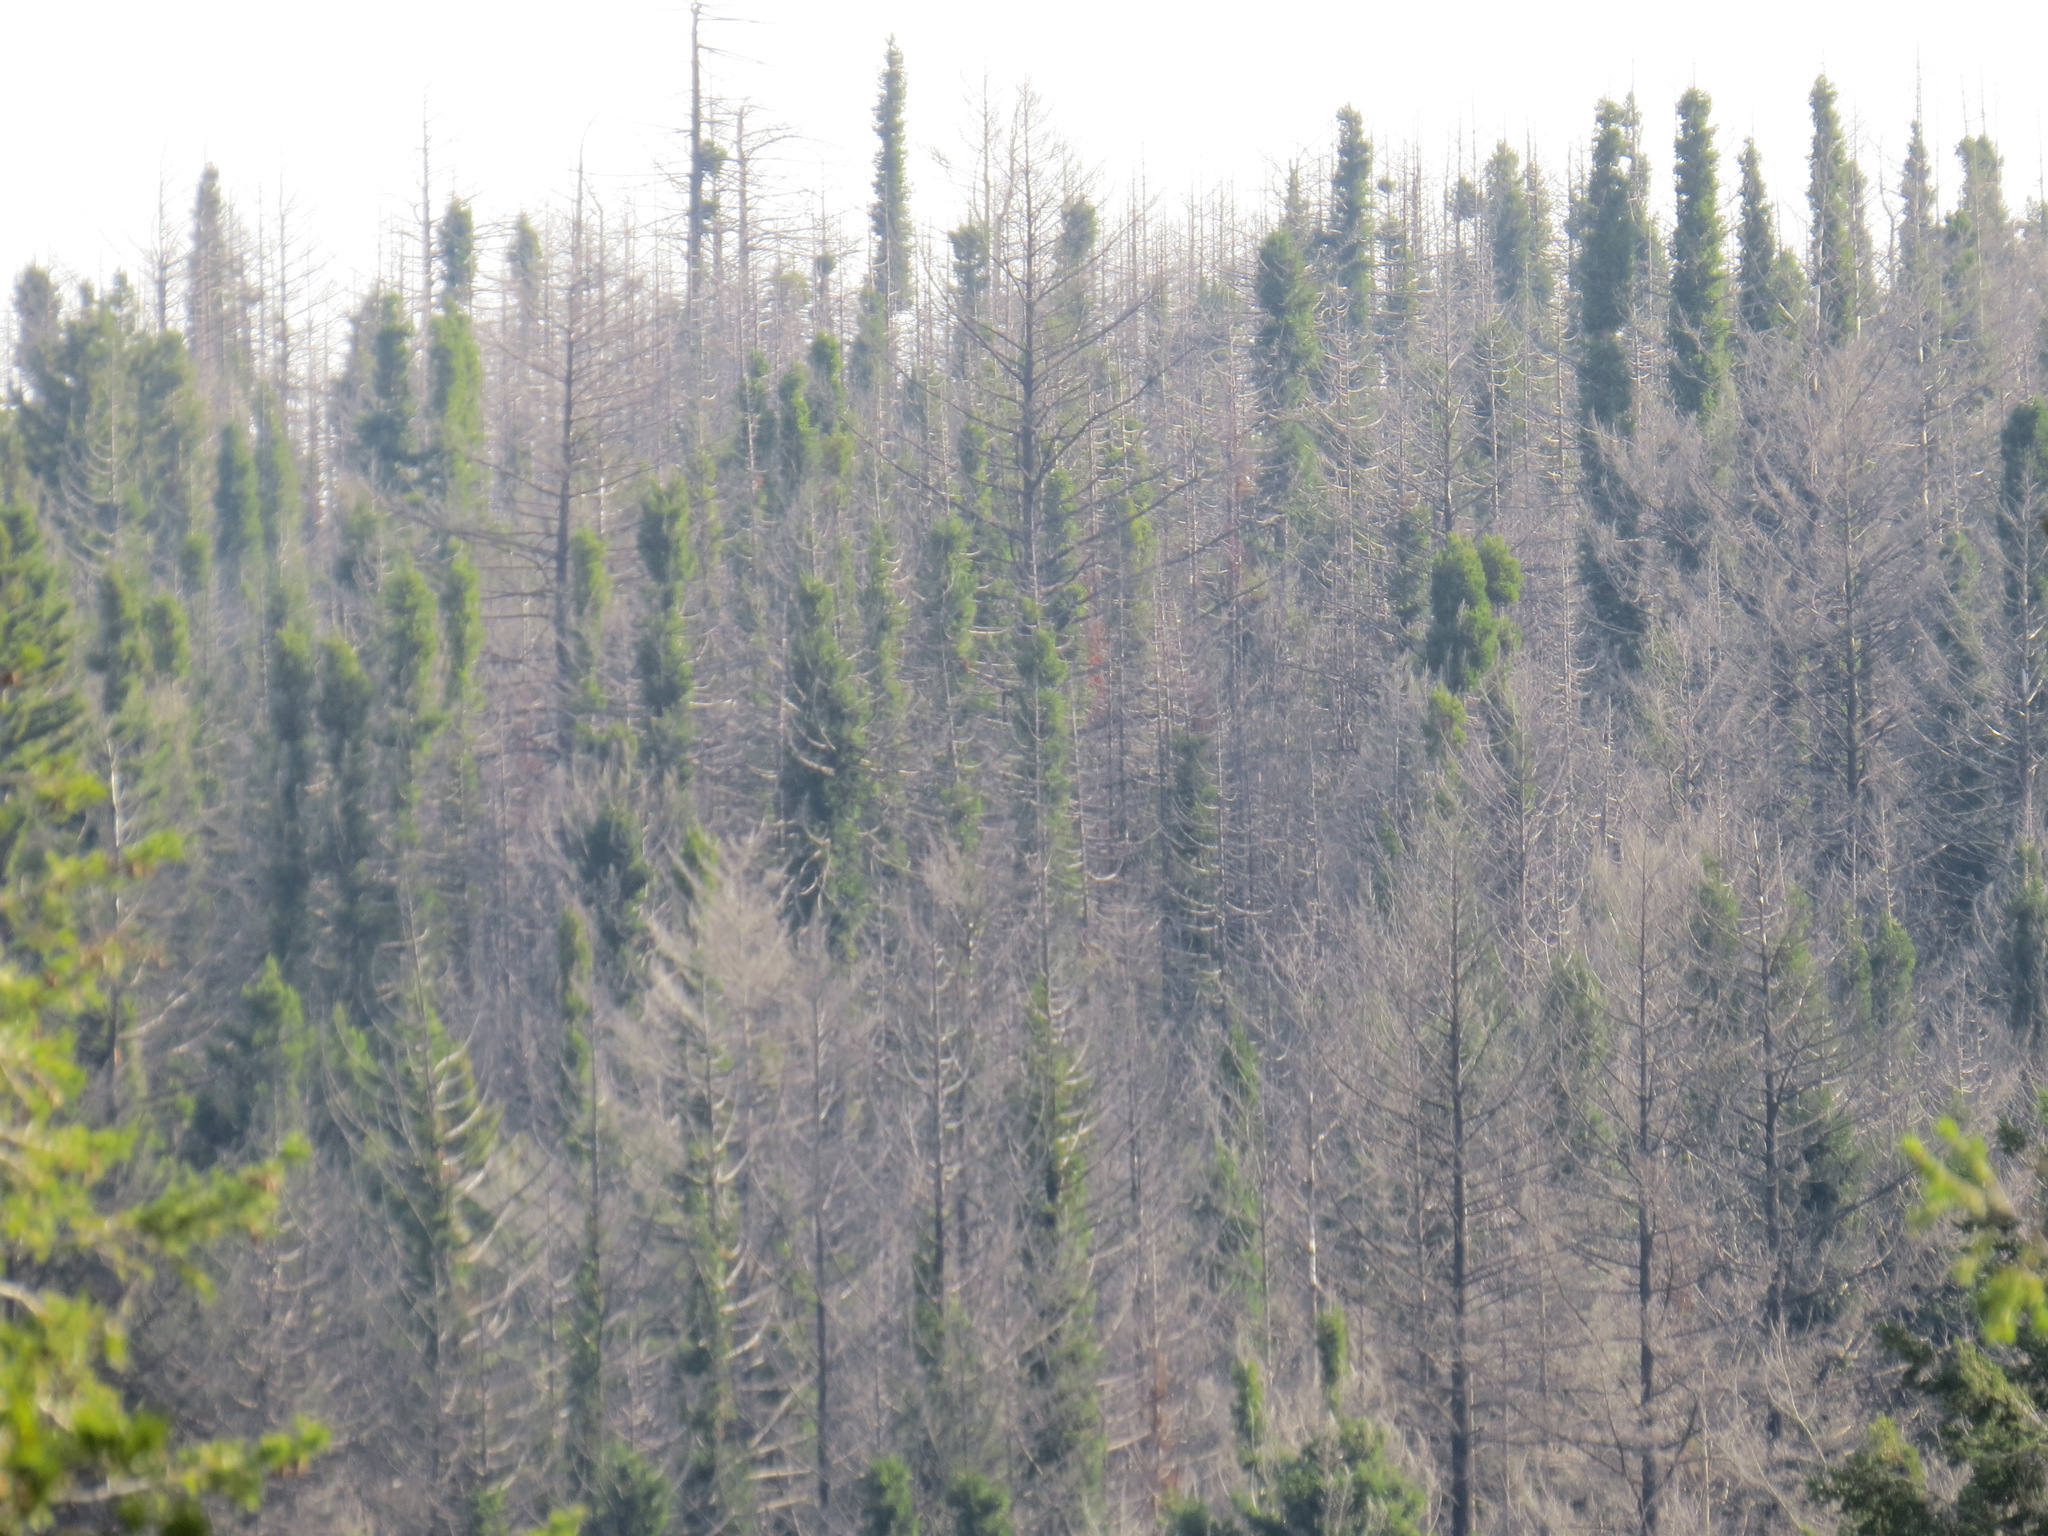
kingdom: Plantae
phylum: Tracheophyta
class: Pinopsida
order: Pinales
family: Cupressaceae
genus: Sequoia
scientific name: Sequoia sempervirens
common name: Coast redwood
